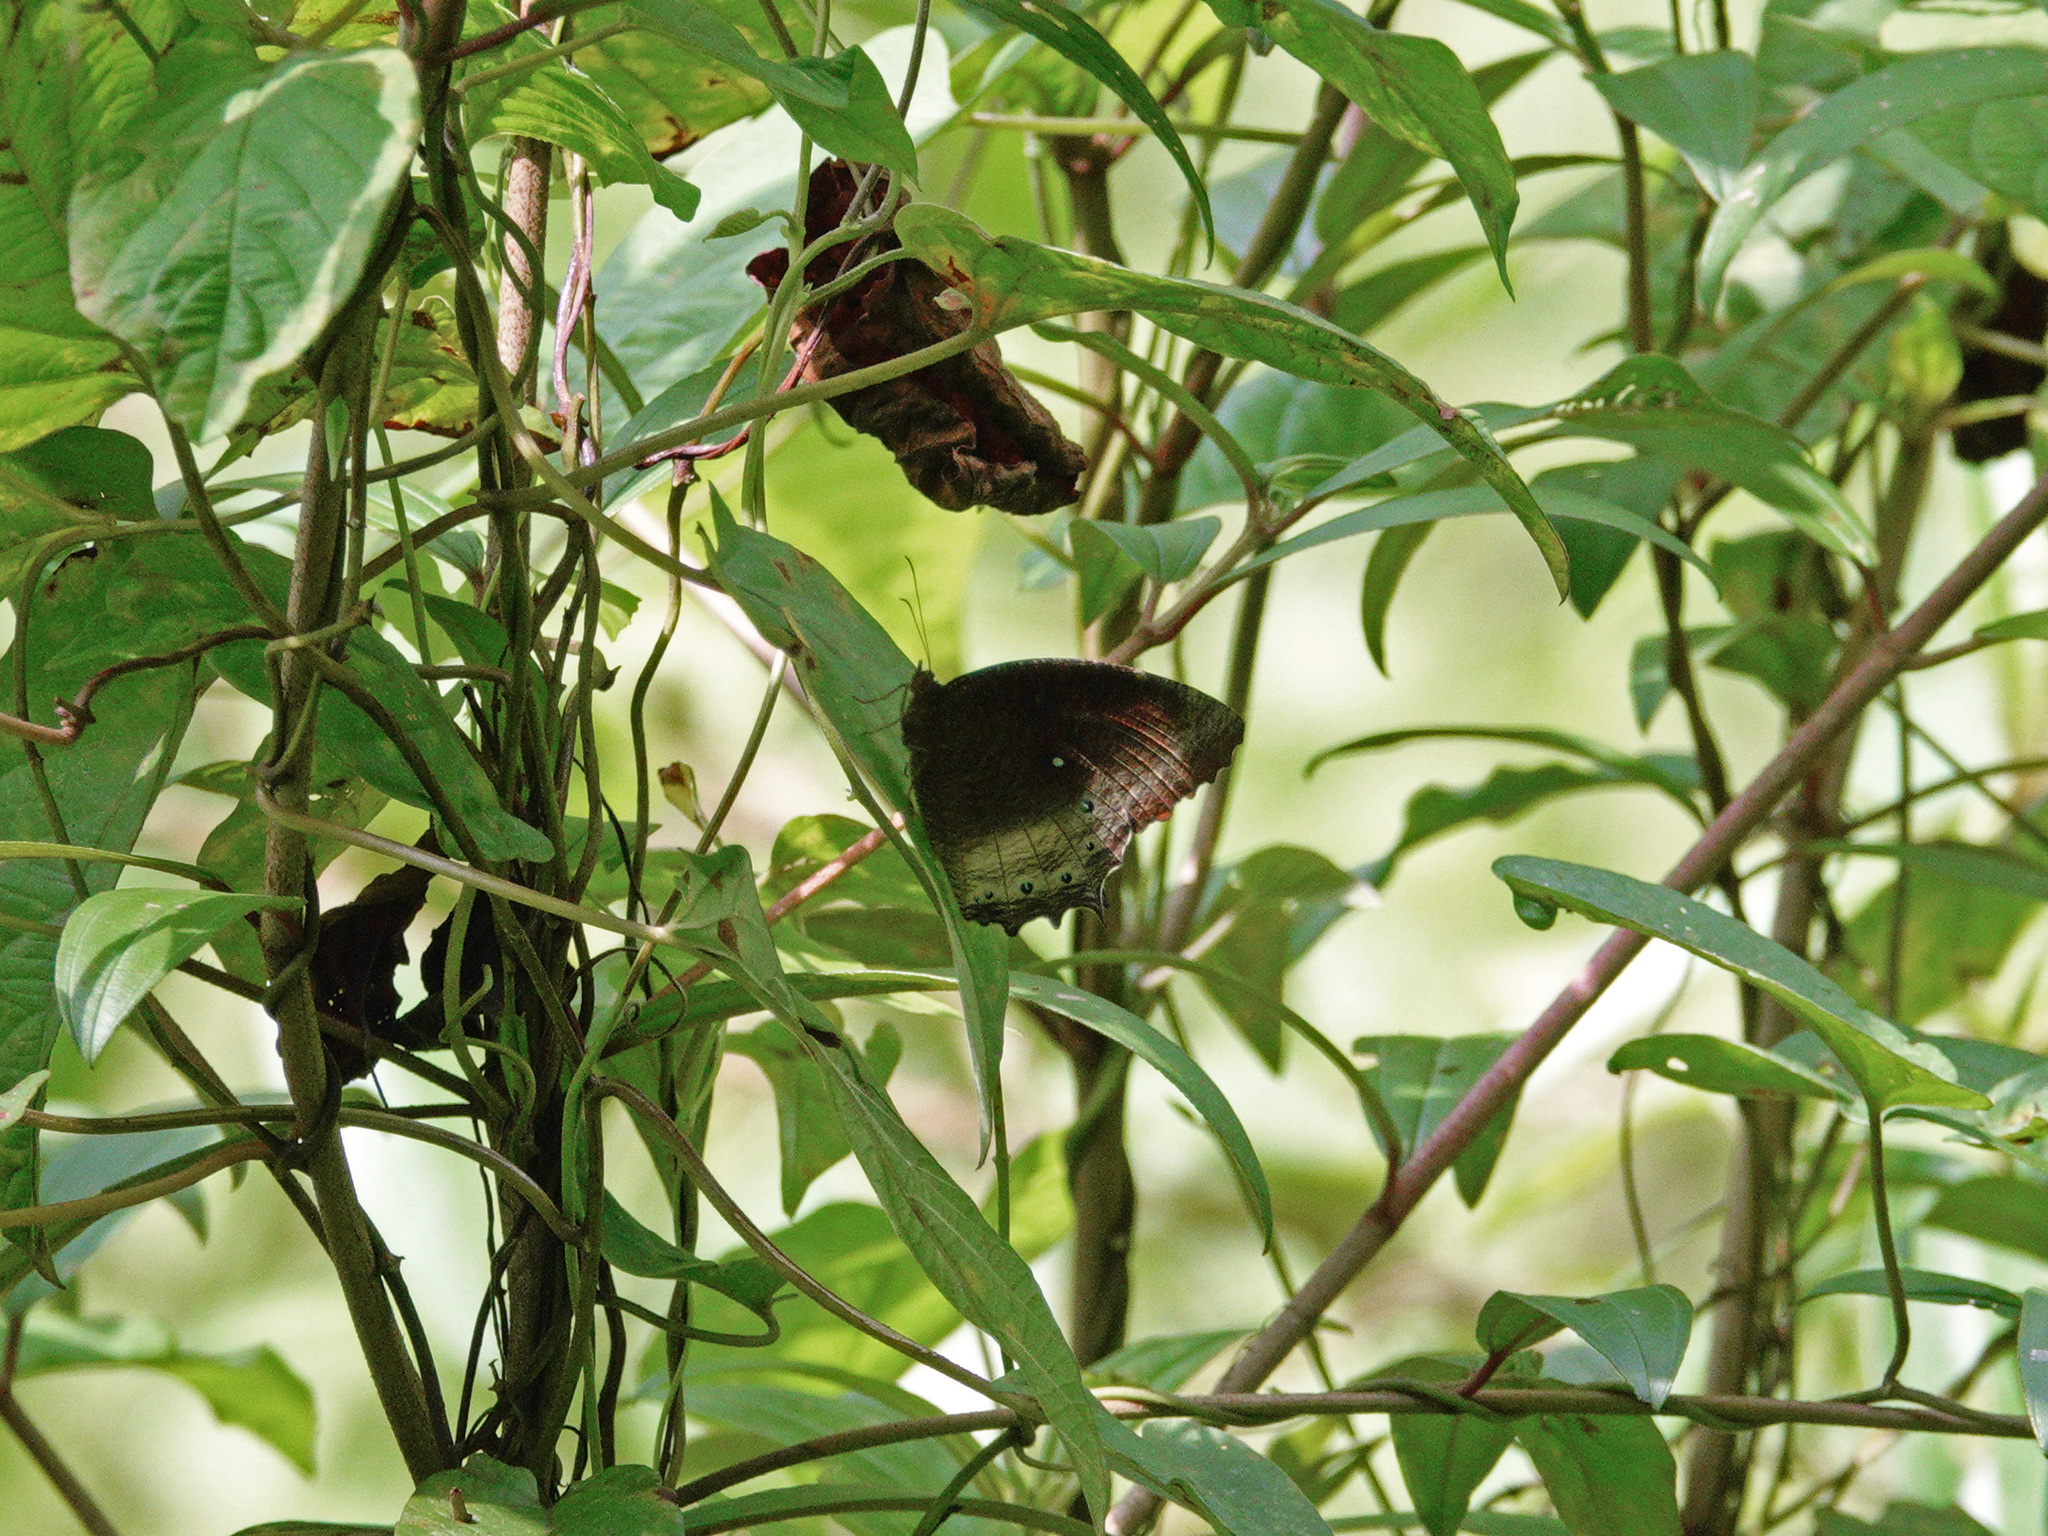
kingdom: Animalia
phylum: Arthropoda
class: Insecta
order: Lepidoptera
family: Nymphalidae
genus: Elymnias
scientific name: Elymnias panthera
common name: Tawny palmfly
